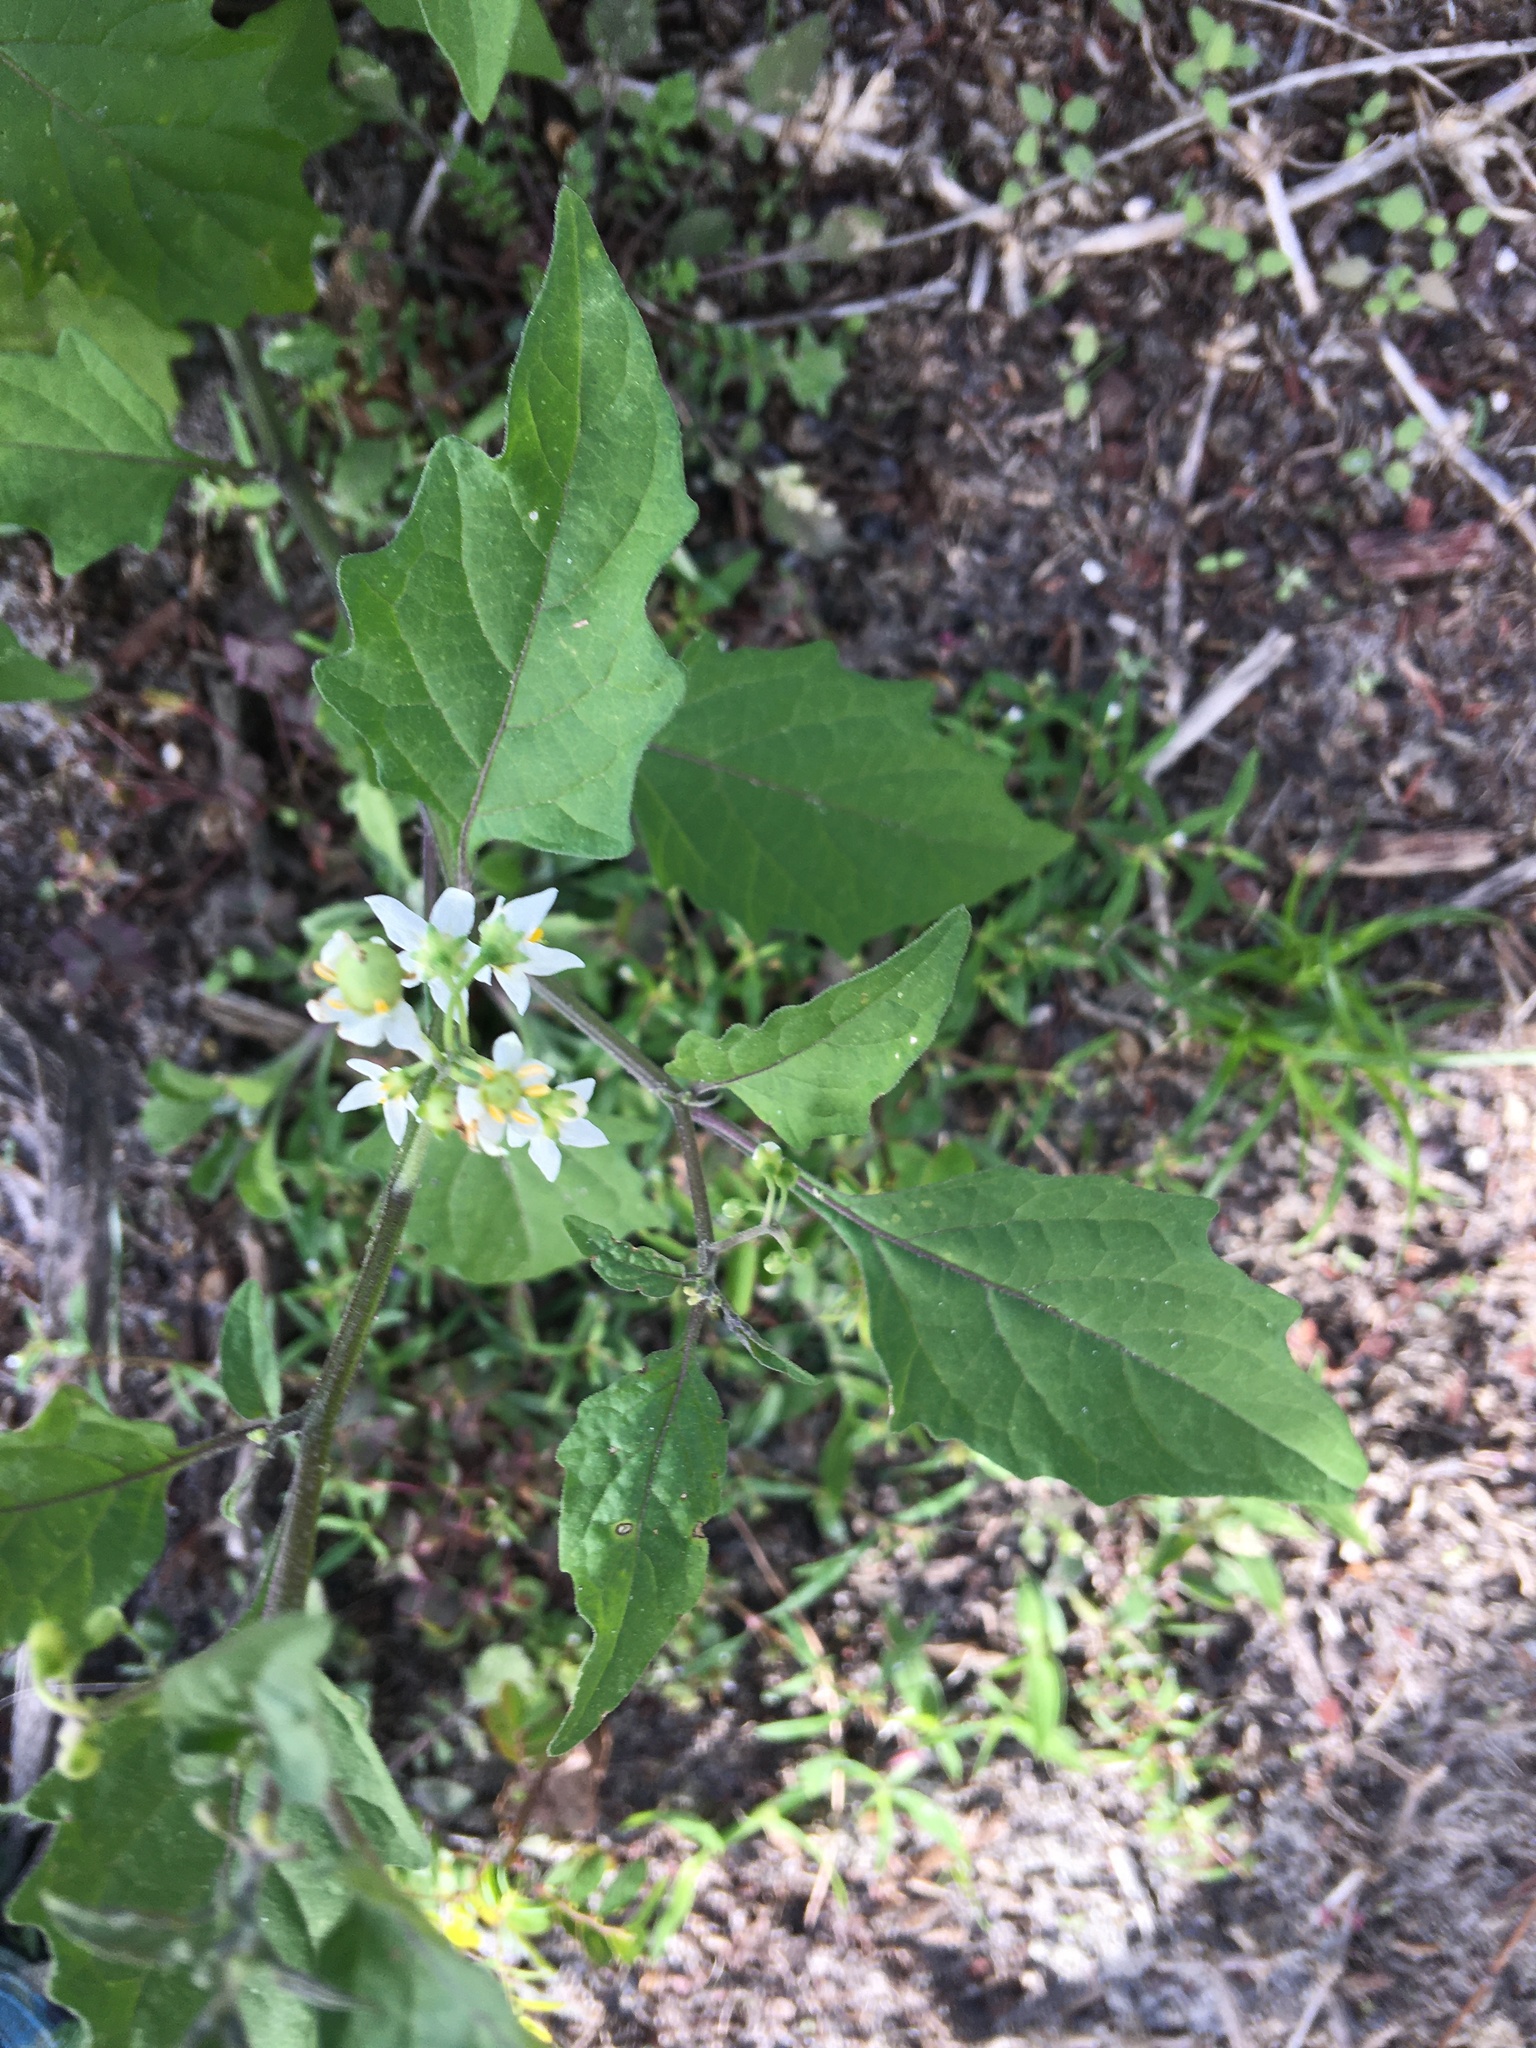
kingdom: Plantae
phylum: Tracheophyta
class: Magnoliopsida
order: Solanales
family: Solanaceae
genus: Solanum
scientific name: Solanum americanum
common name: American black nightshade
